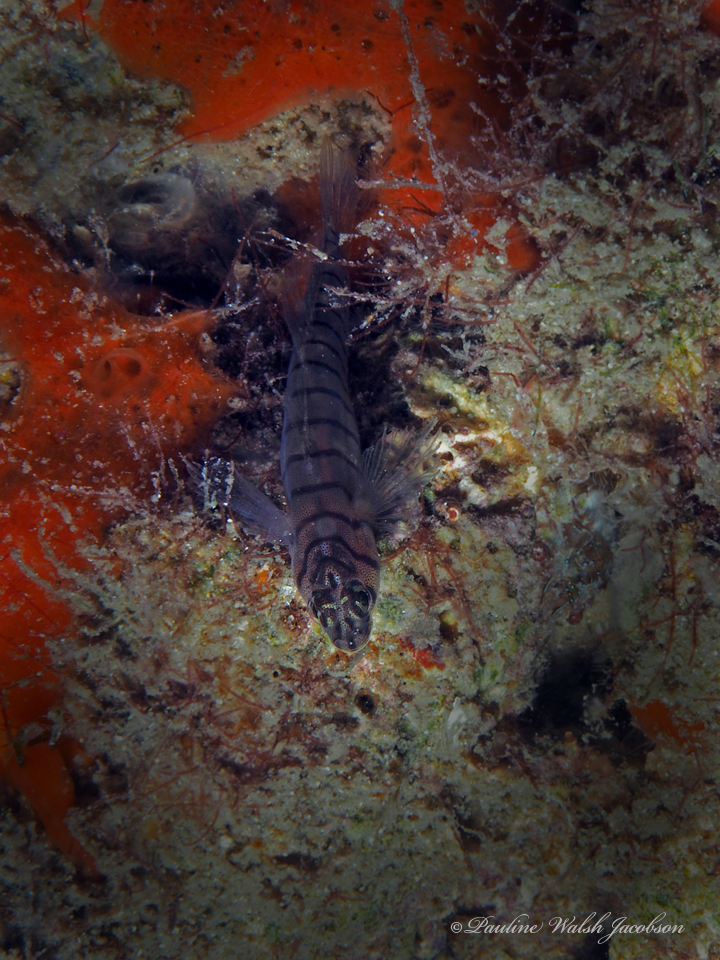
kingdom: Animalia
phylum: Chordata
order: Perciformes
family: Gobiidae
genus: Tigrigobius
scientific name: Tigrigobius macrodon
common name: Tiger goby
